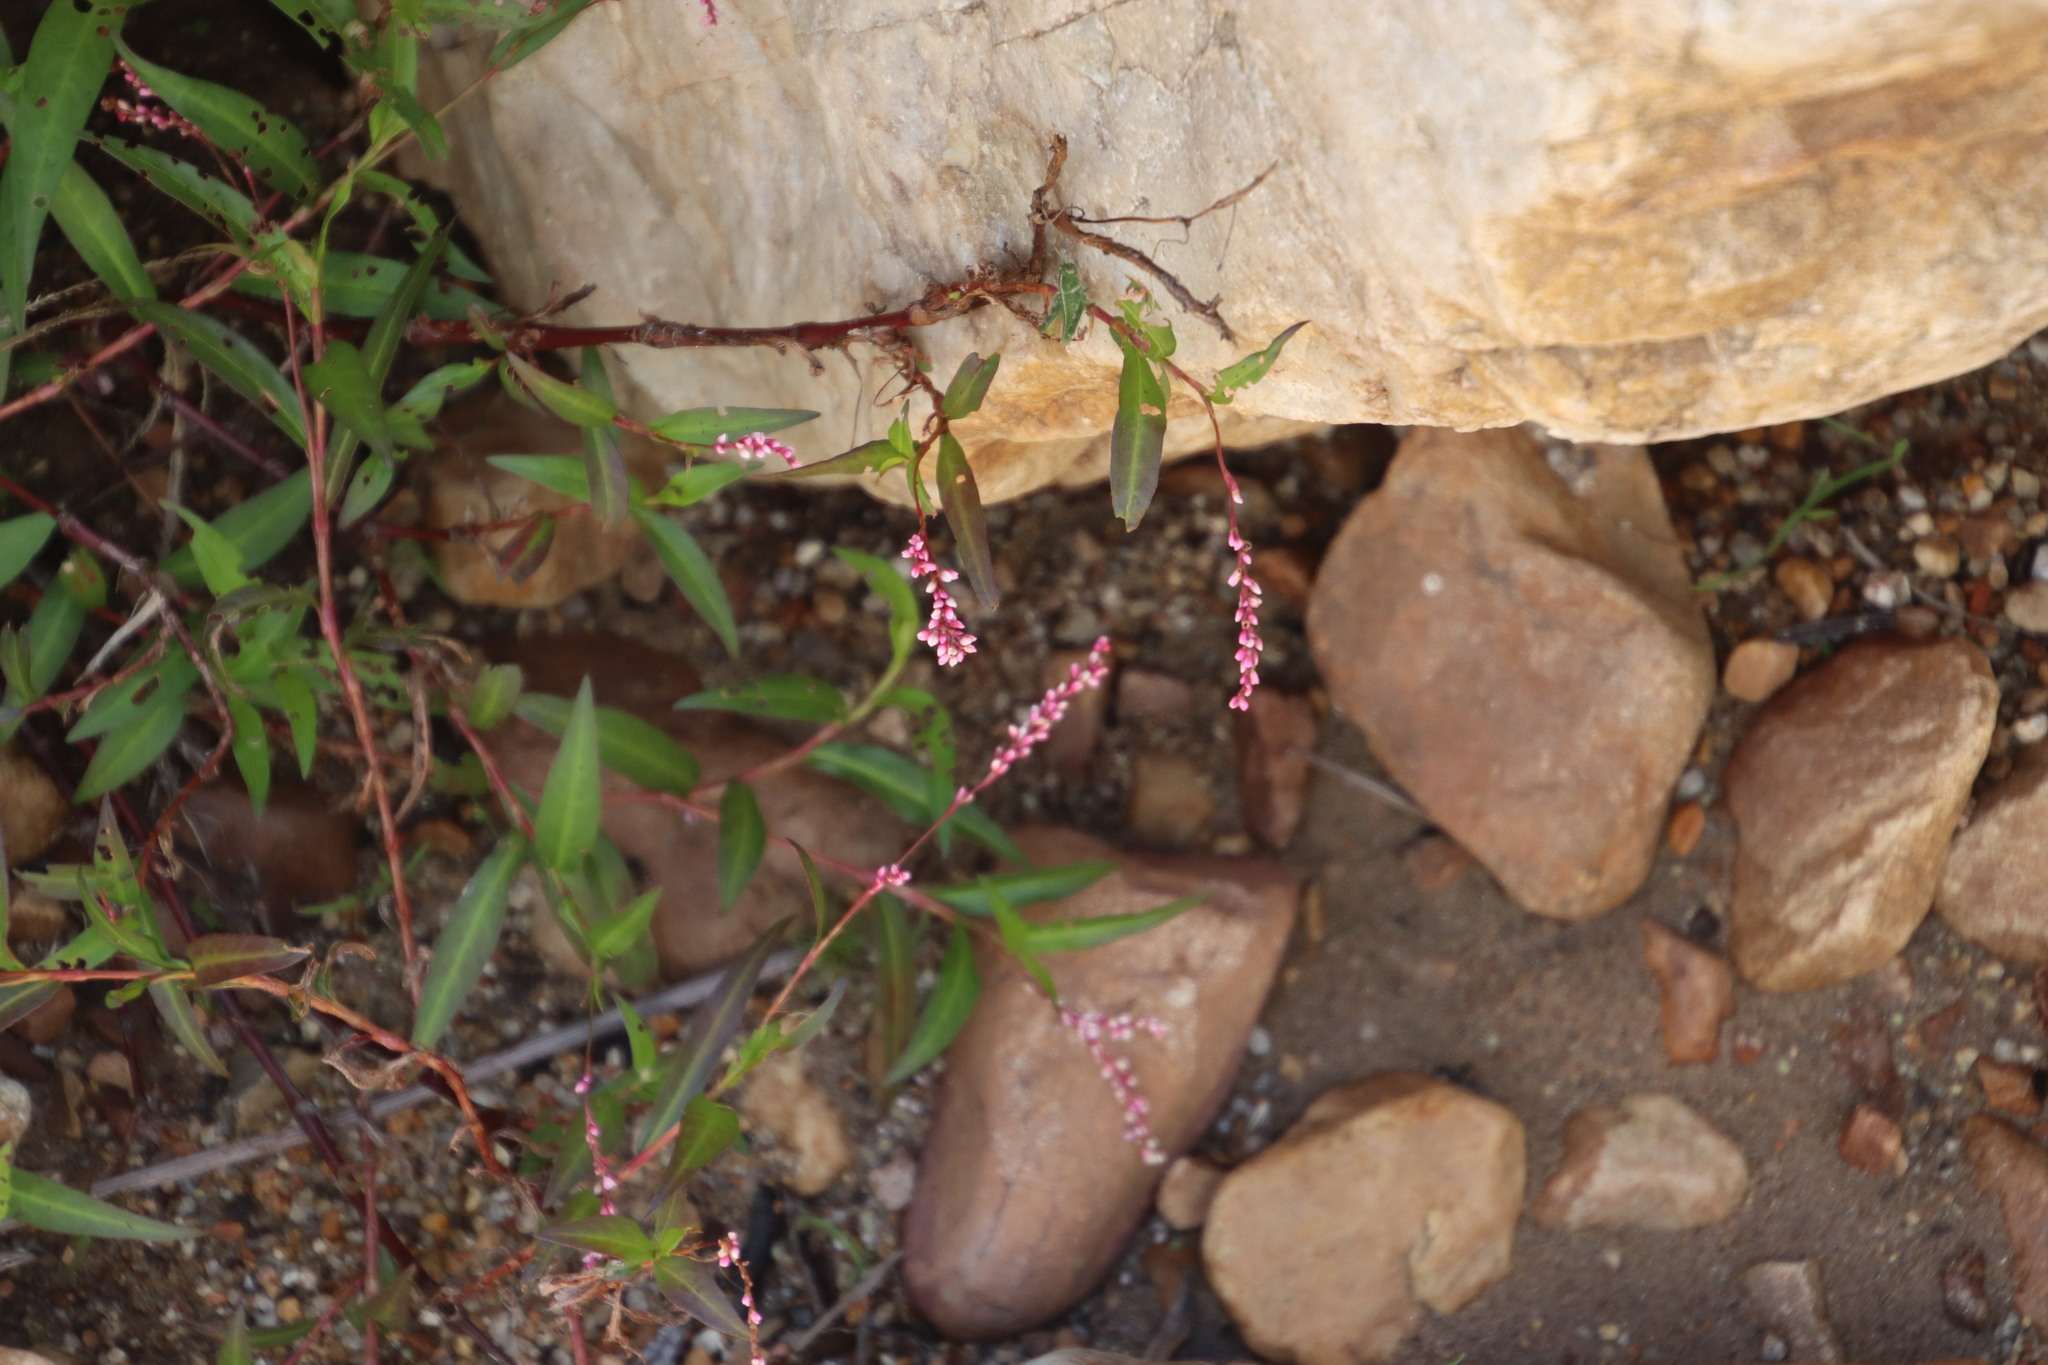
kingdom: Plantae
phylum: Tracheophyta
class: Magnoliopsida
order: Caryophyllales
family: Polygonaceae
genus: Persicaria
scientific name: Persicaria decipiens
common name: Willow-weed
